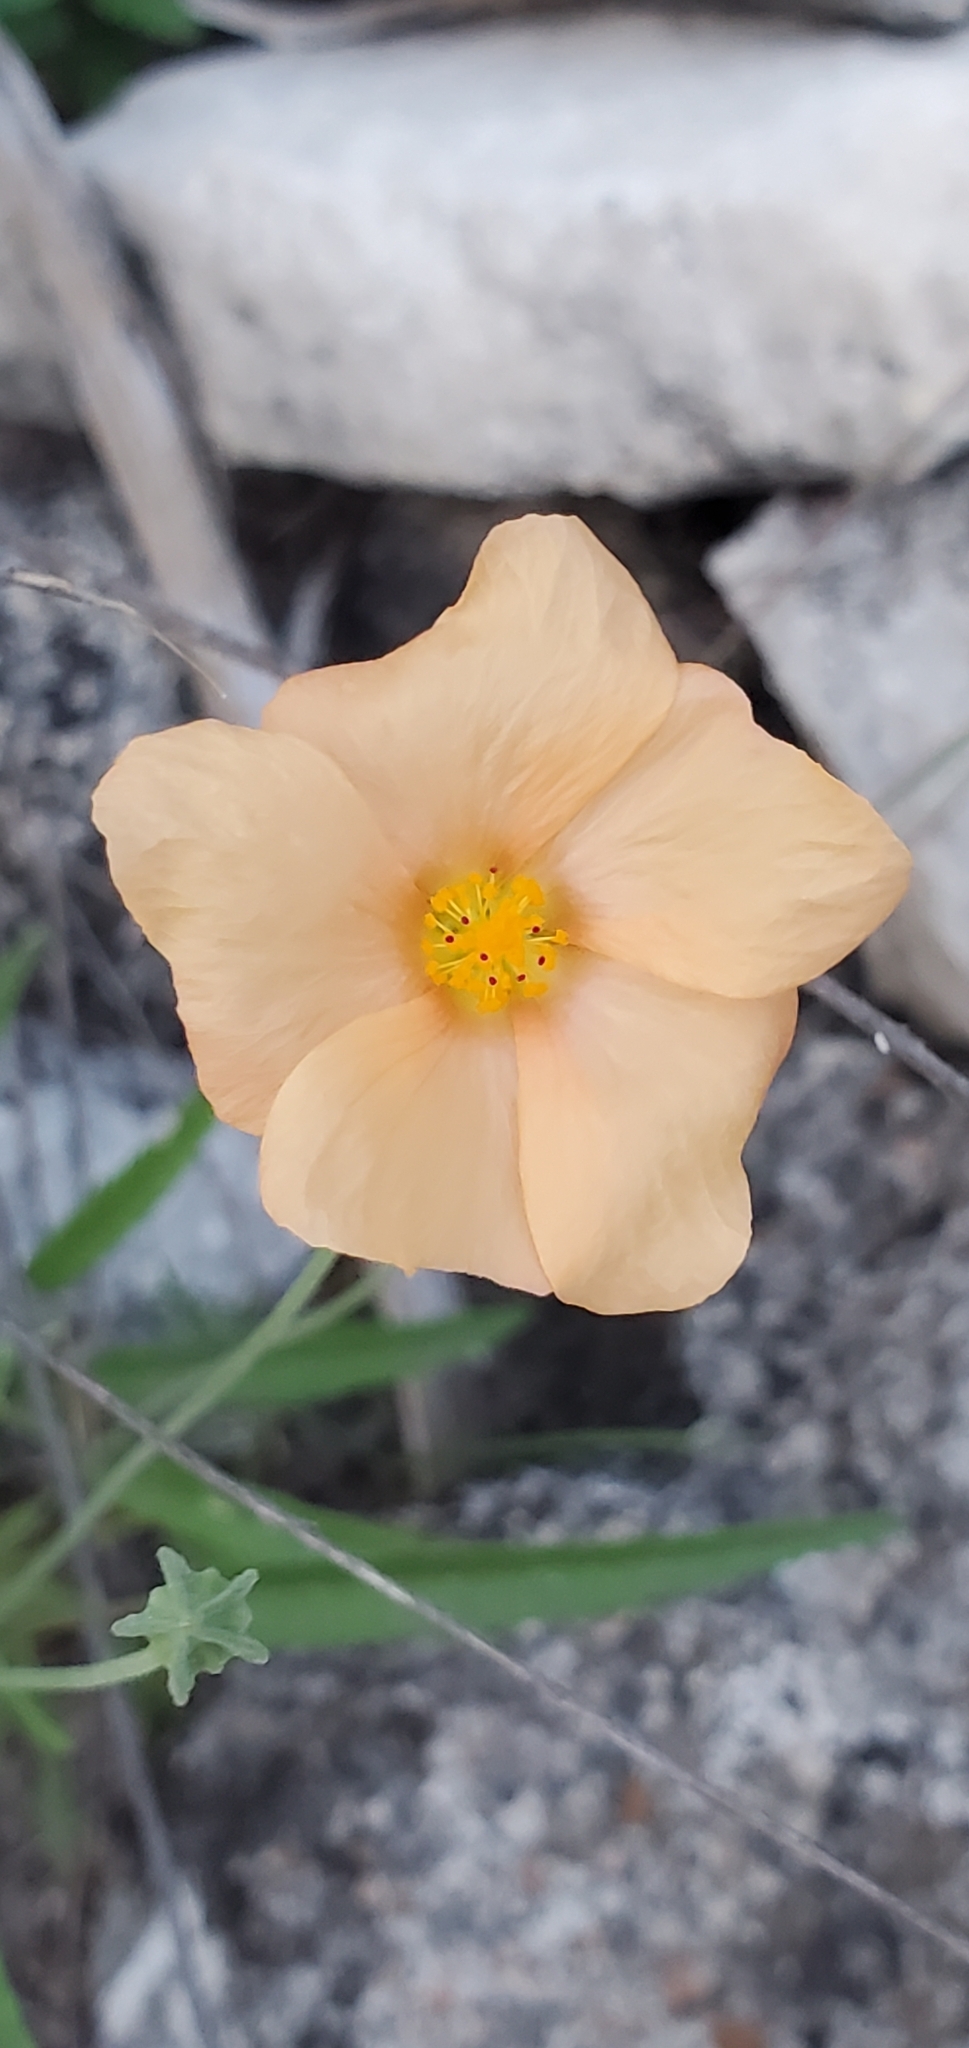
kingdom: Plantae
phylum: Tracheophyta
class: Magnoliopsida
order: Malvales
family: Malvaceae
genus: Sida
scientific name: Sida abutilifolia
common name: Spreading fanpetals
